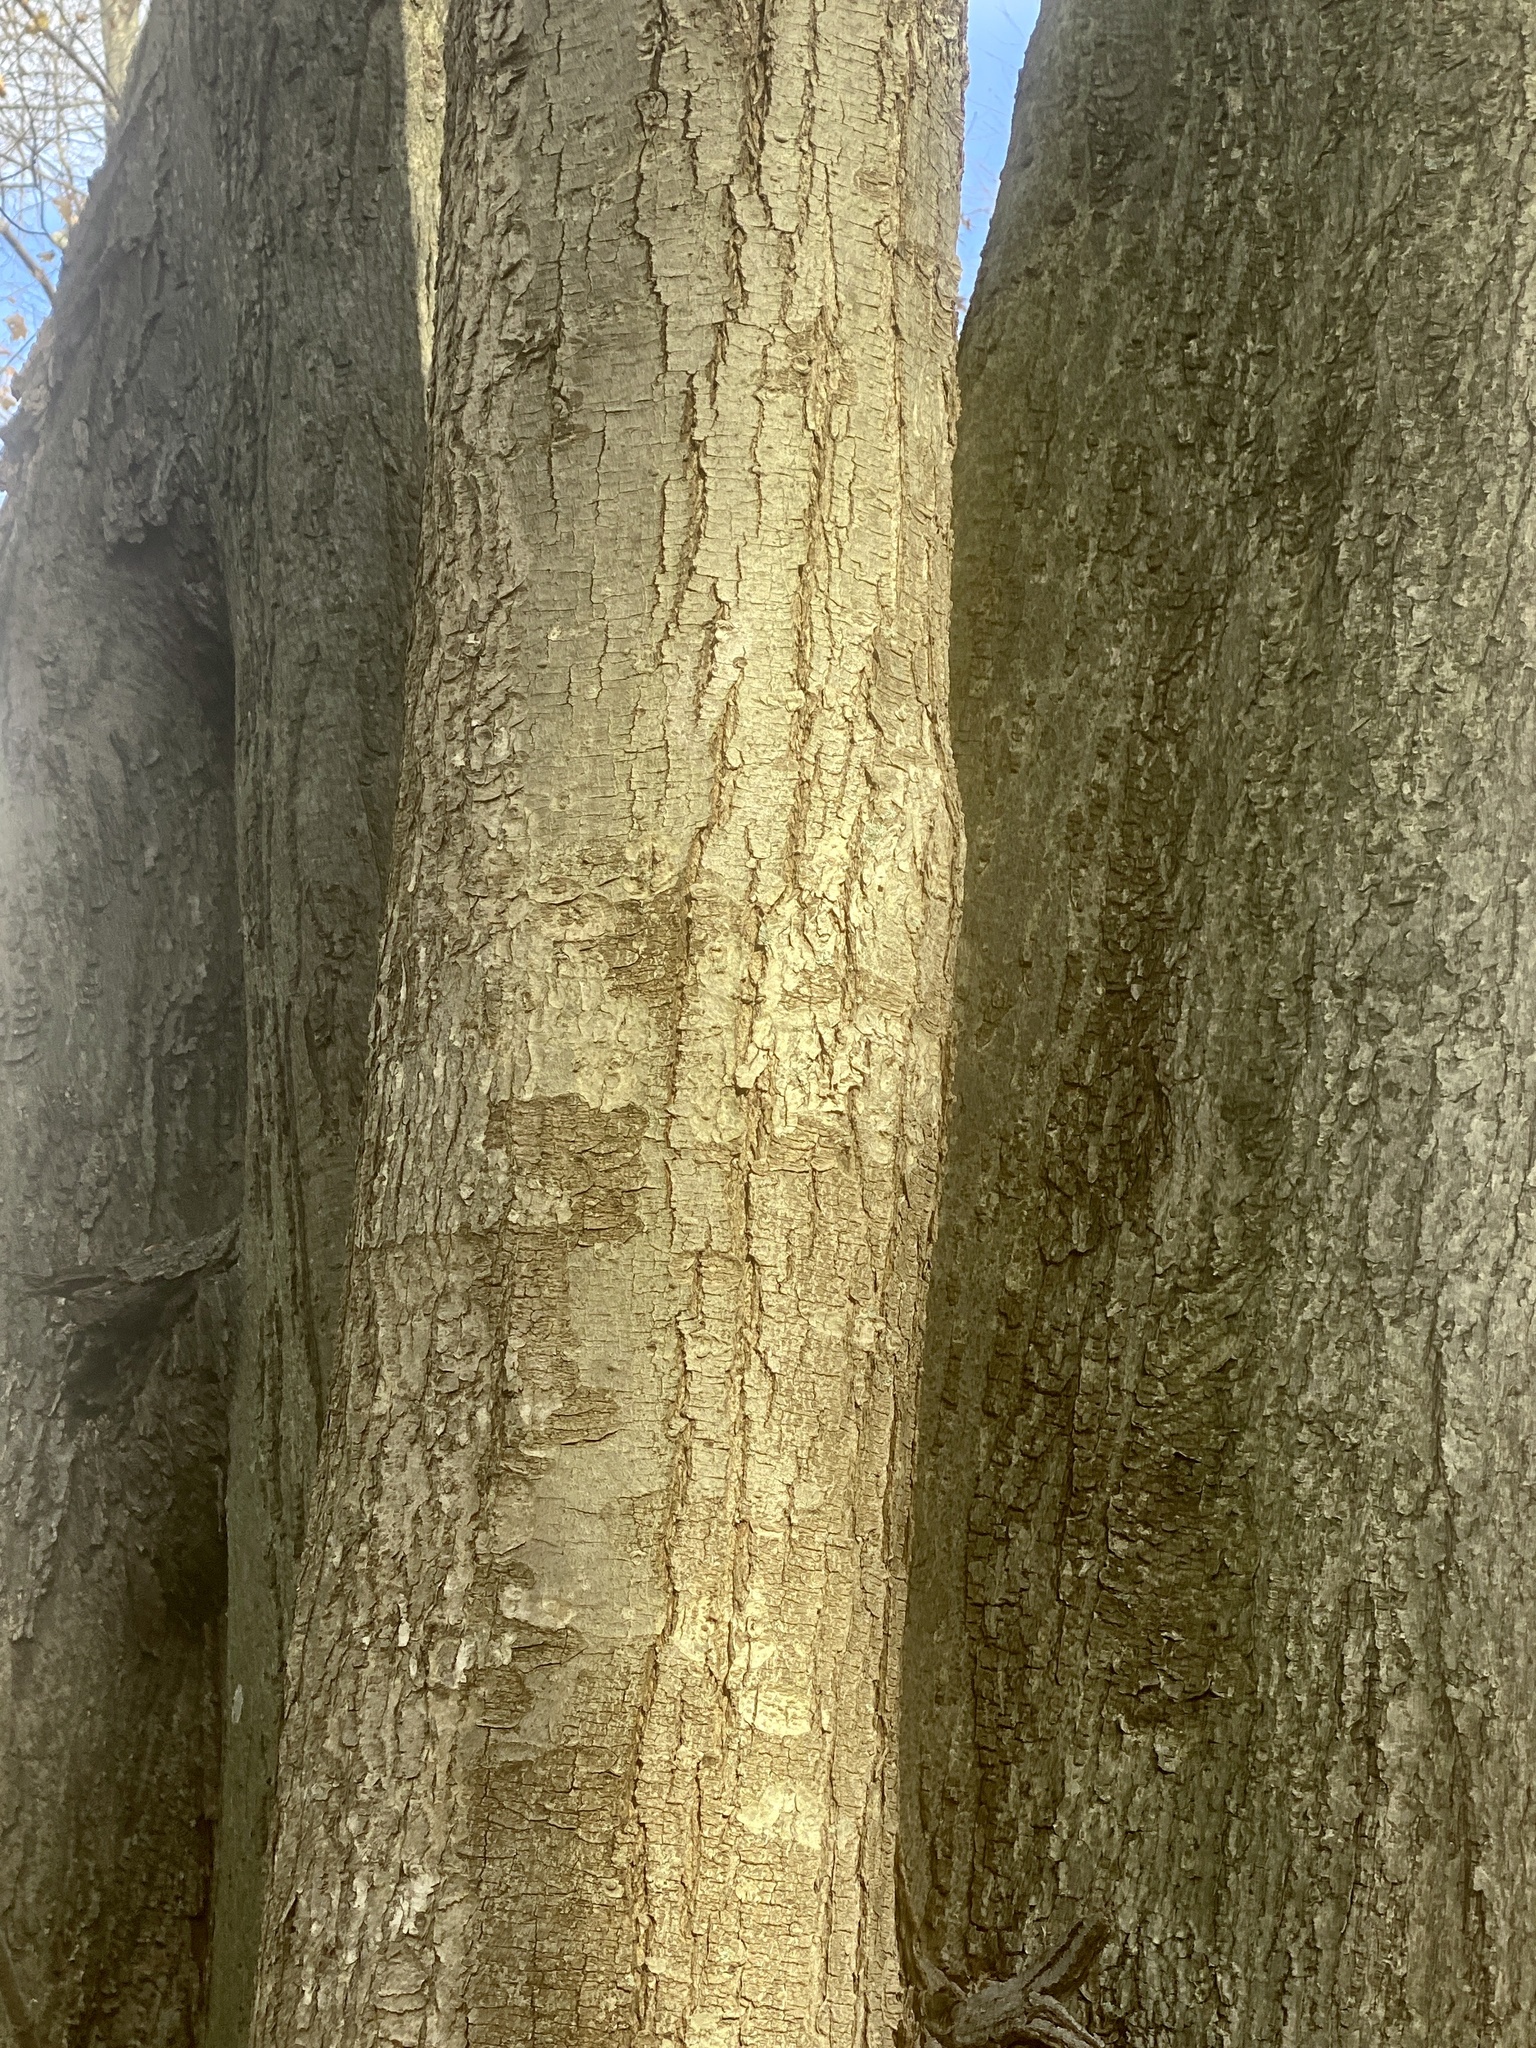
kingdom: Plantae
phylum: Tracheophyta
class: Magnoliopsida
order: Sapindales
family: Sapindaceae
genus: Acer
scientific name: Acer rubrum
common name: Red maple
